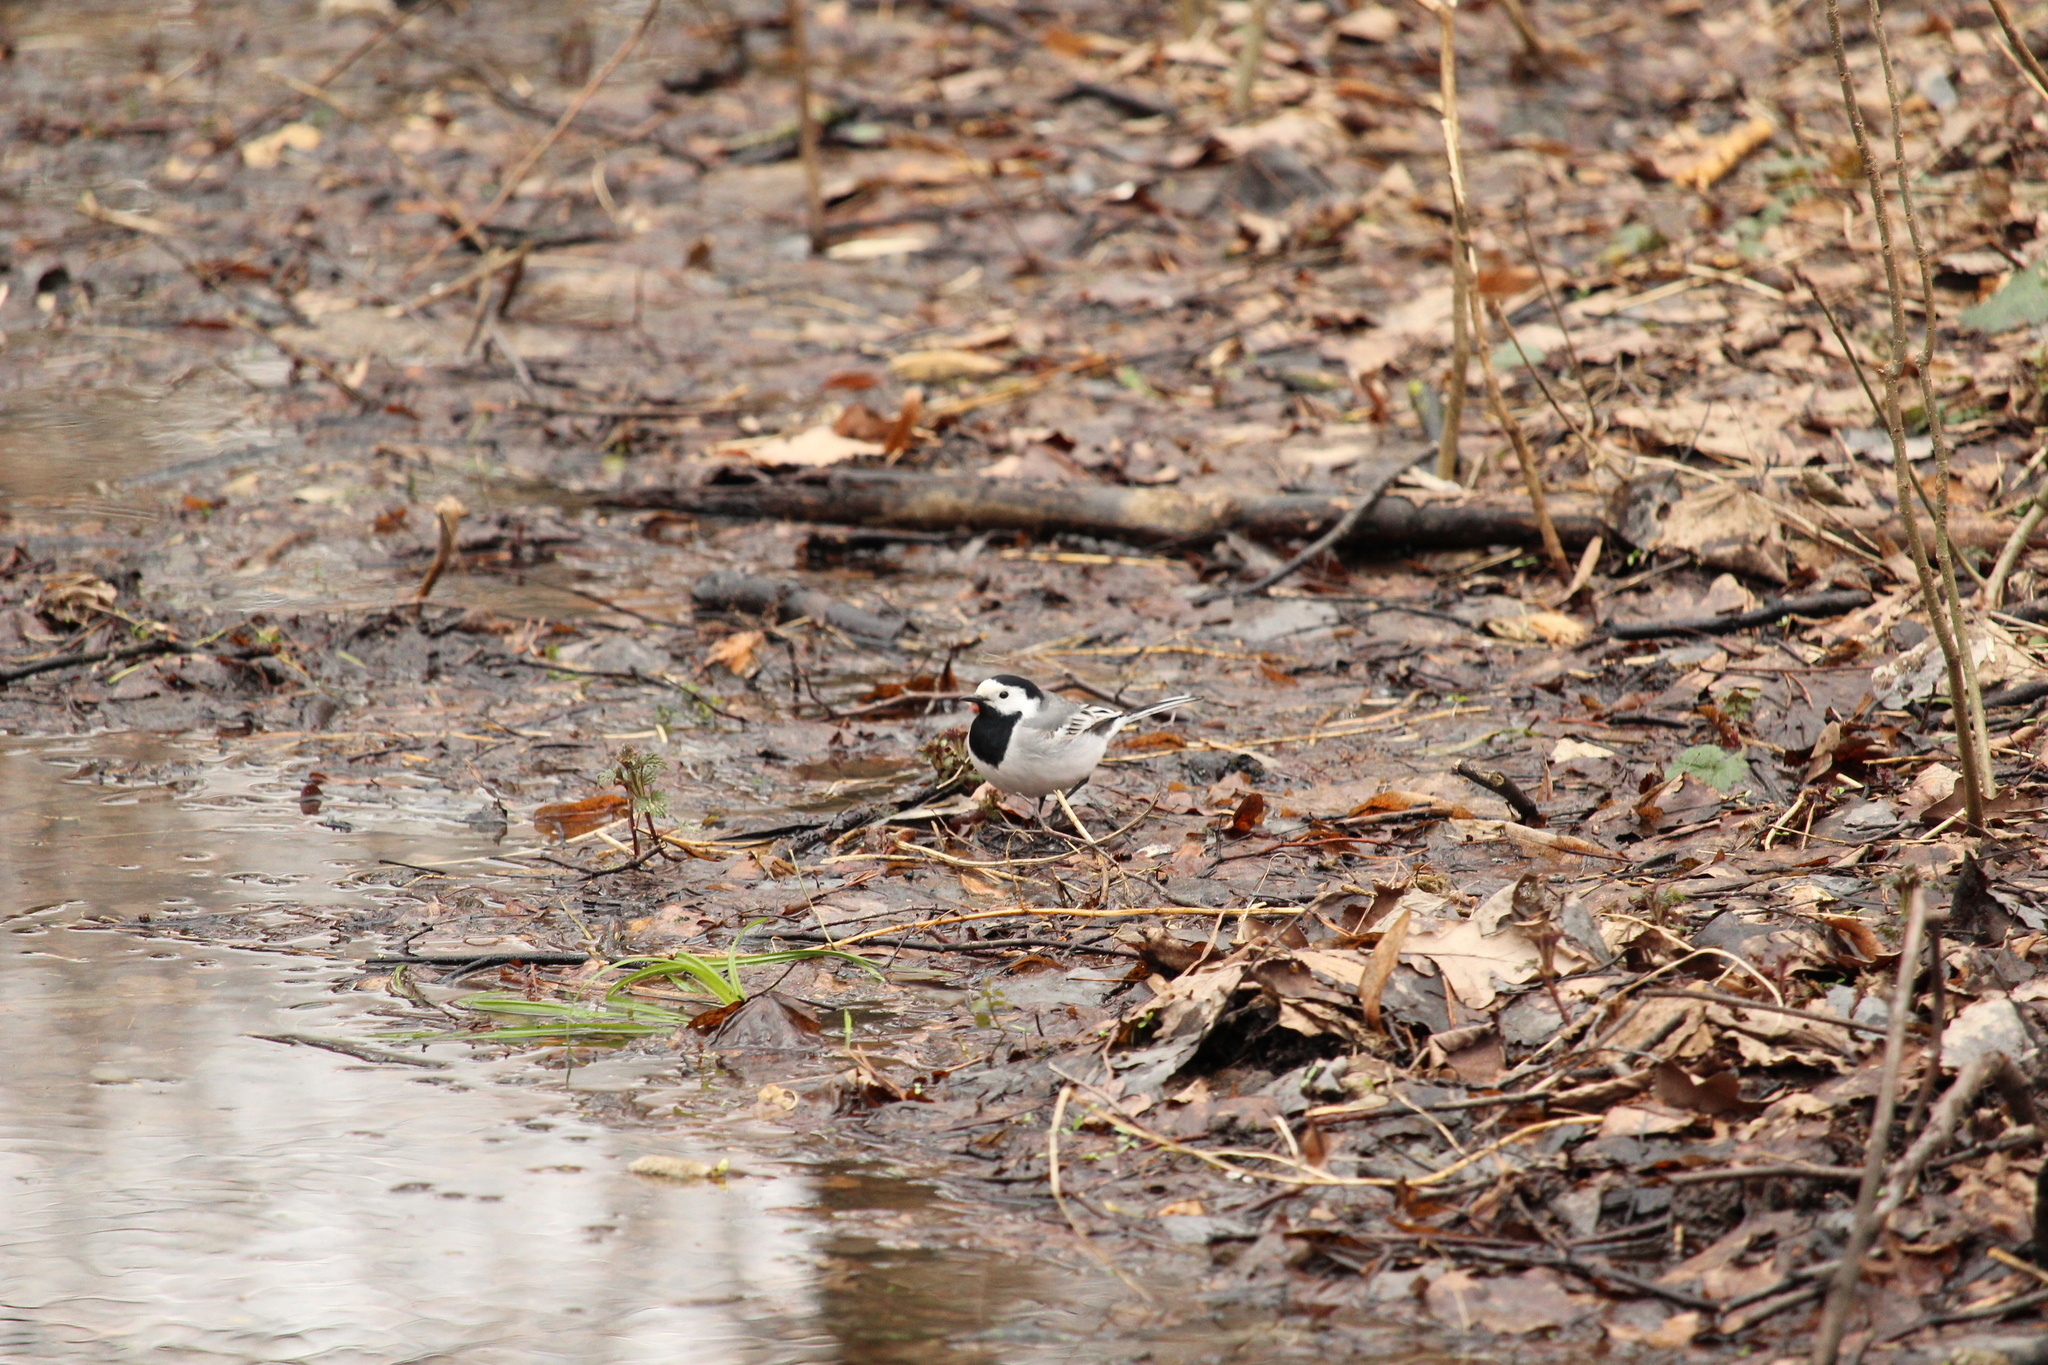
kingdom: Animalia
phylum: Chordata
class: Aves
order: Passeriformes
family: Motacillidae
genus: Motacilla
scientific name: Motacilla alba
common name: White wagtail
